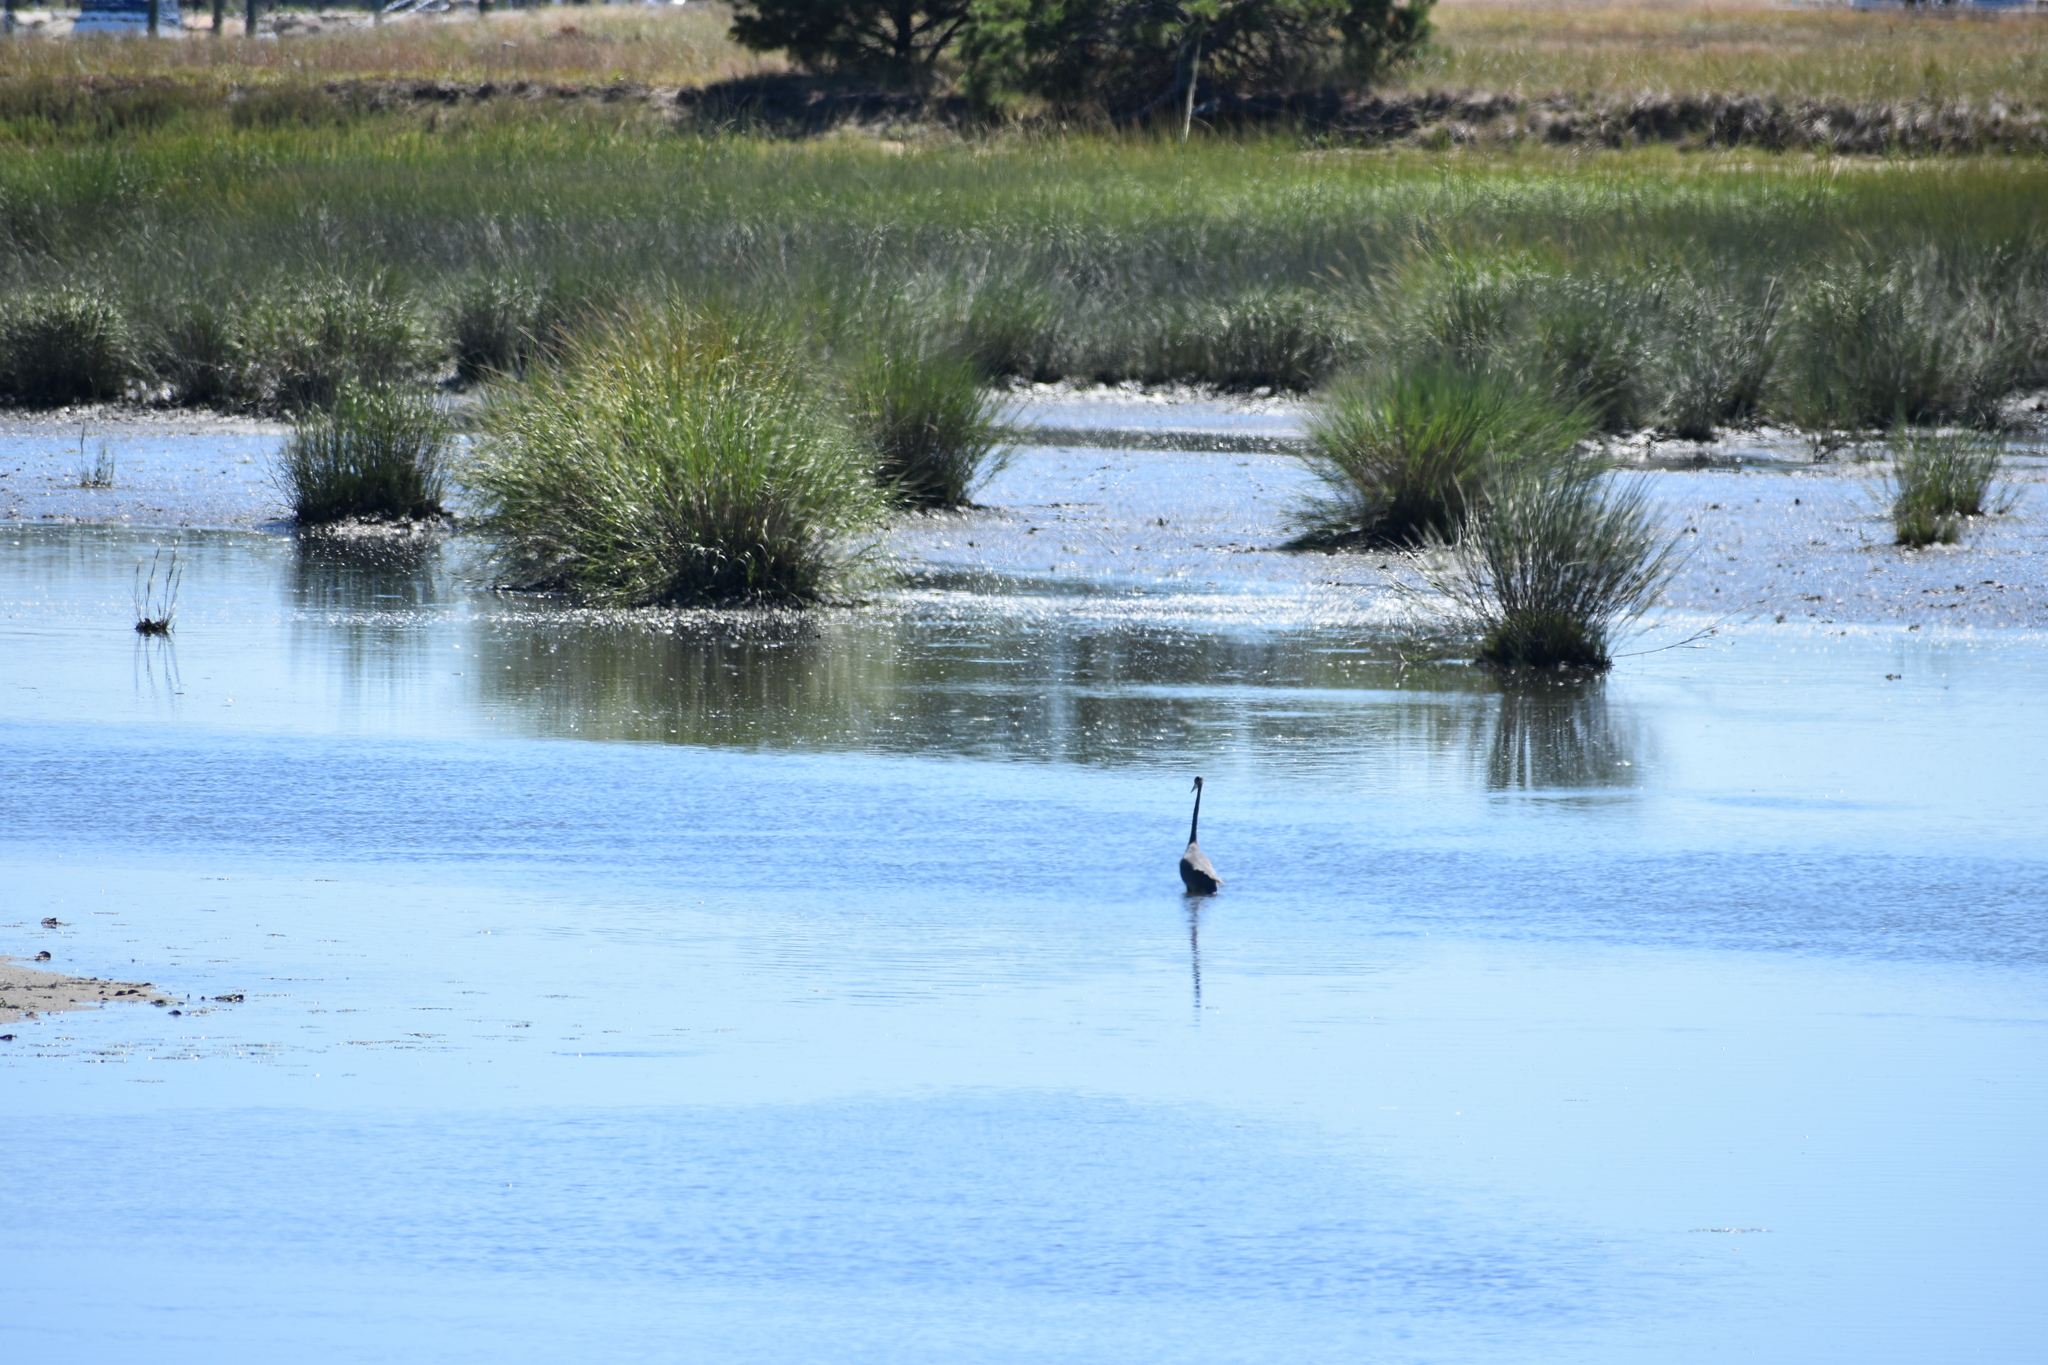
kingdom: Animalia
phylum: Chordata
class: Aves
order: Pelecaniformes
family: Ardeidae
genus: Ardea
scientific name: Ardea herodias
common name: Great blue heron
